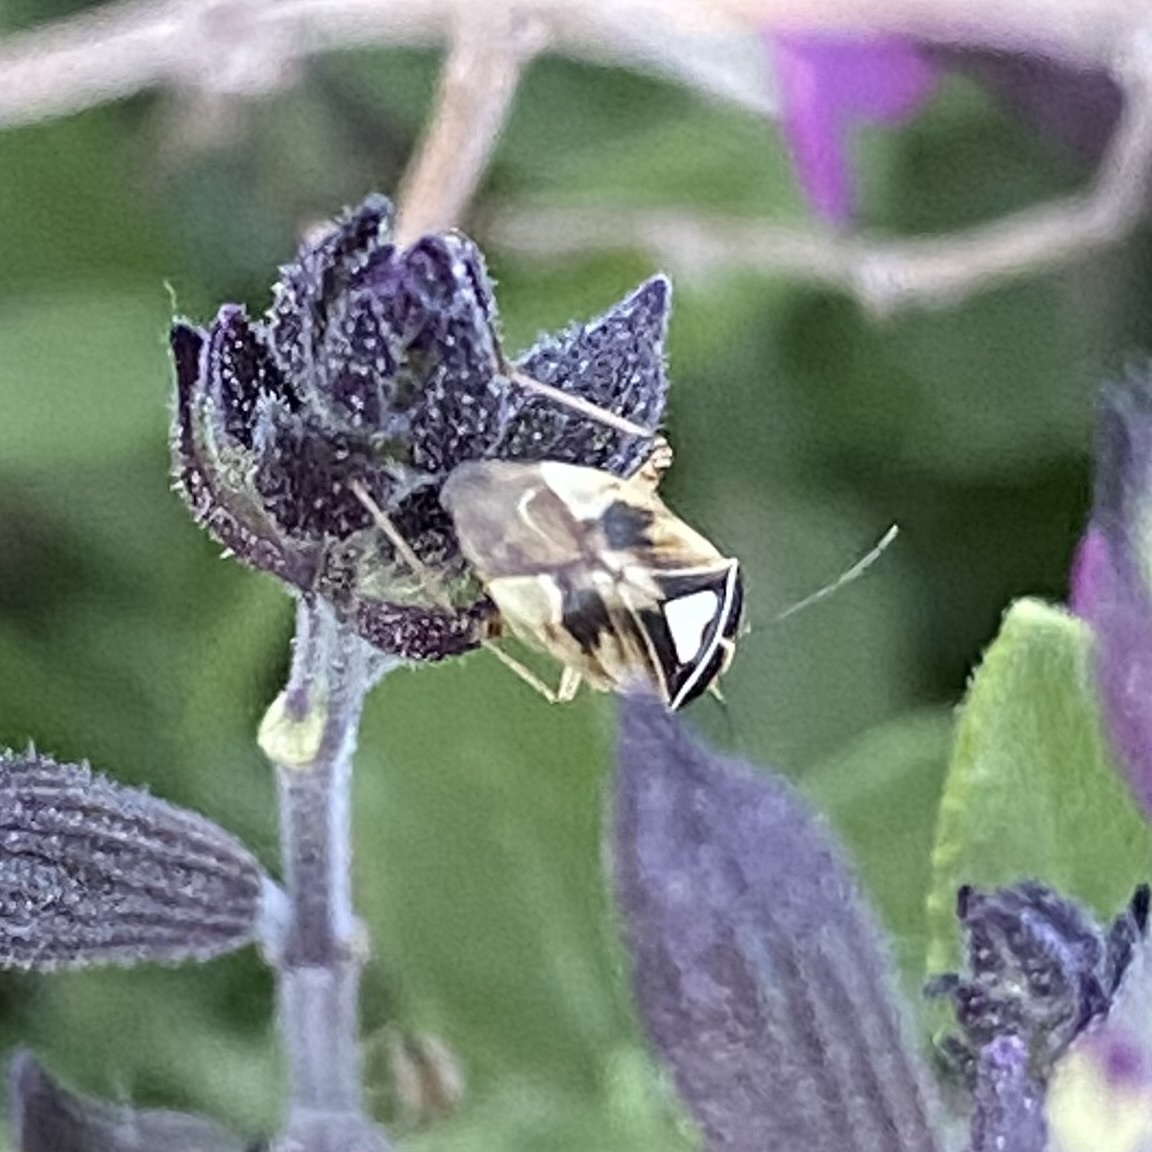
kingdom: Animalia
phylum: Arthropoda
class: Insecta
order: Hemiptera
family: Miridae
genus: Lygus
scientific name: Lygus
